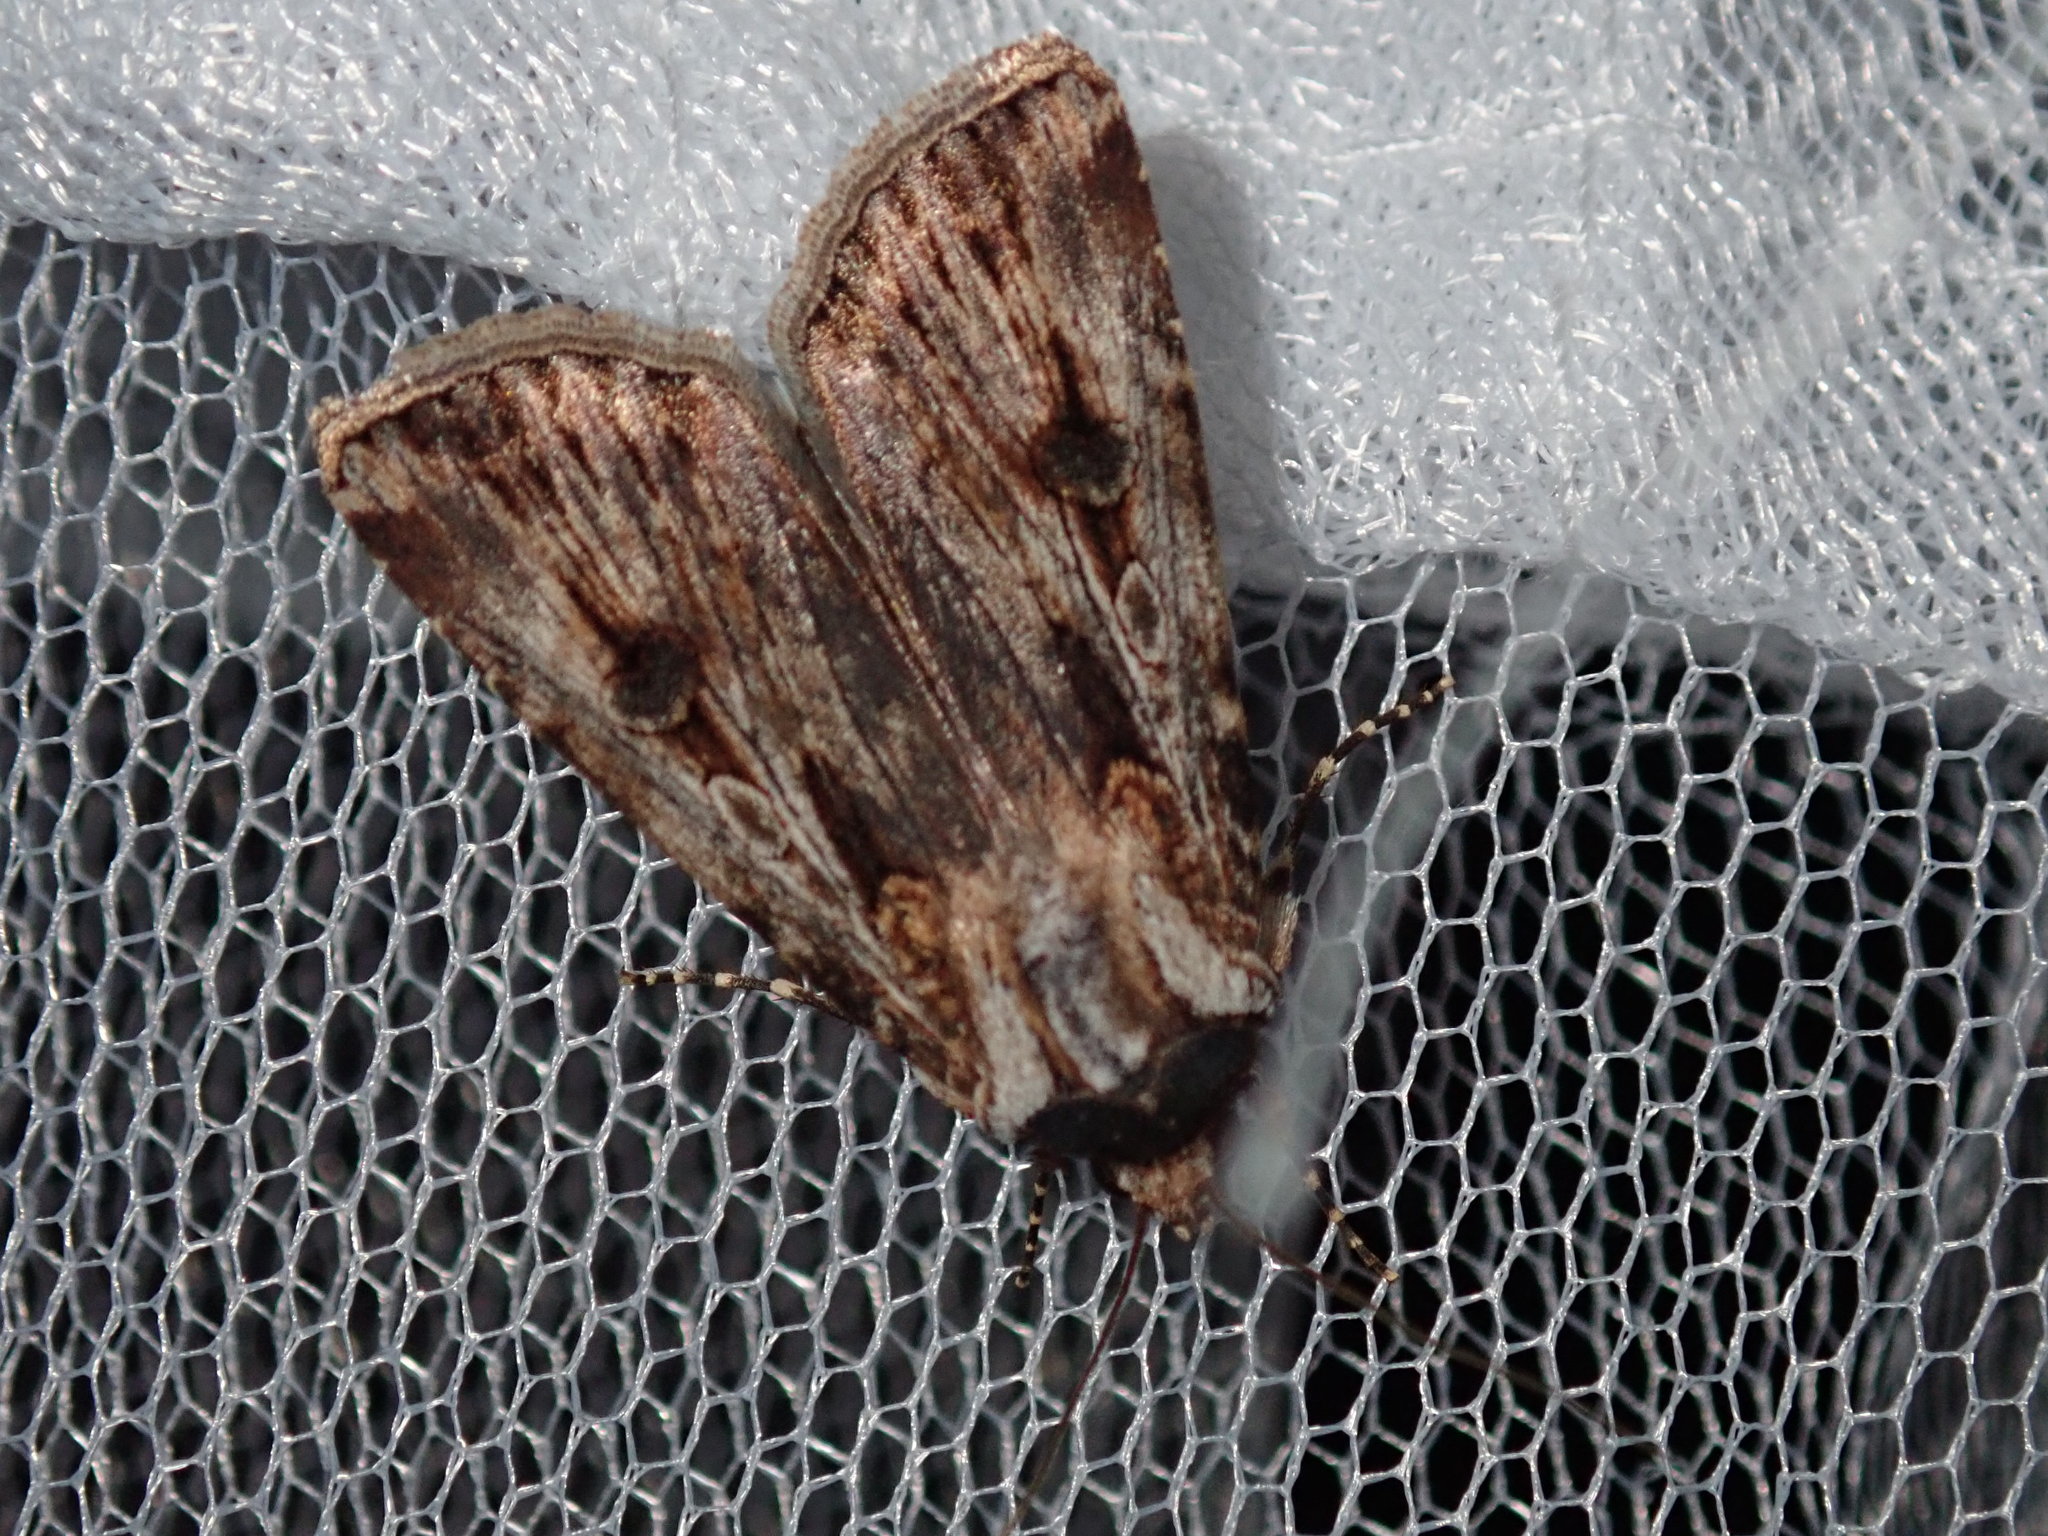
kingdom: Animalia
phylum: Arthropoda
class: Insecta
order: Lepidoptera
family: Noctuidae
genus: Agrotis
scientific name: Agrotis munda
